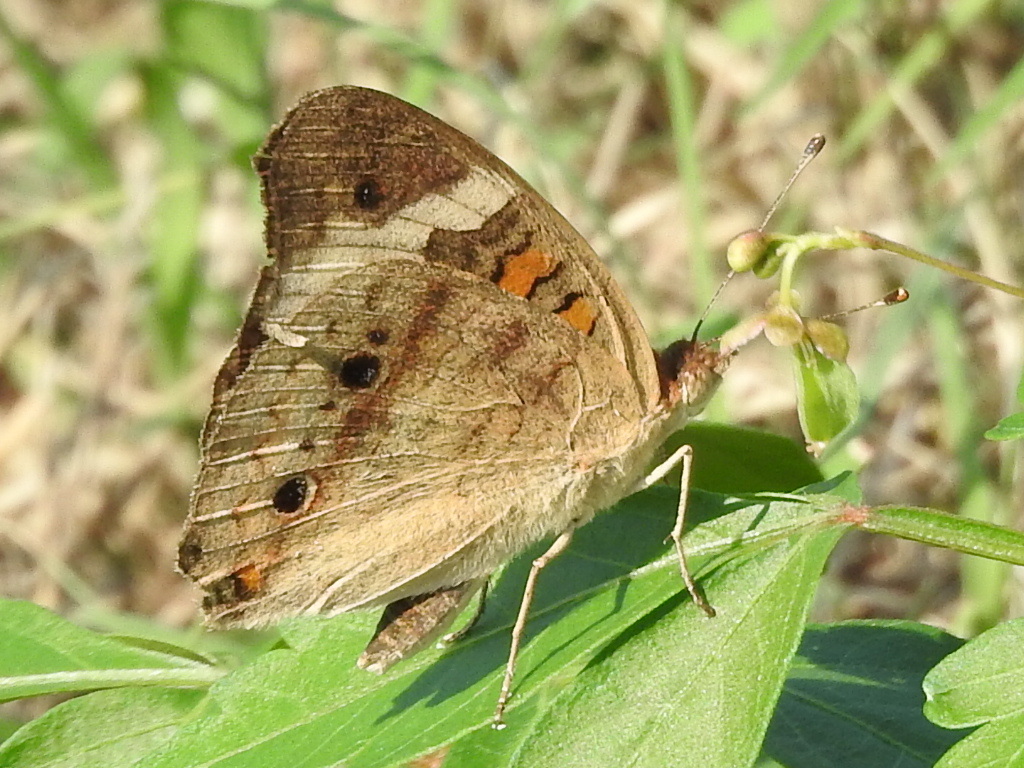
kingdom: Animalia
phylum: Arthropoda
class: Insecta
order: Lepidoptera
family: Nymphalidae
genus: Junonia
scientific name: Junonia coenia
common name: Common buckeye
